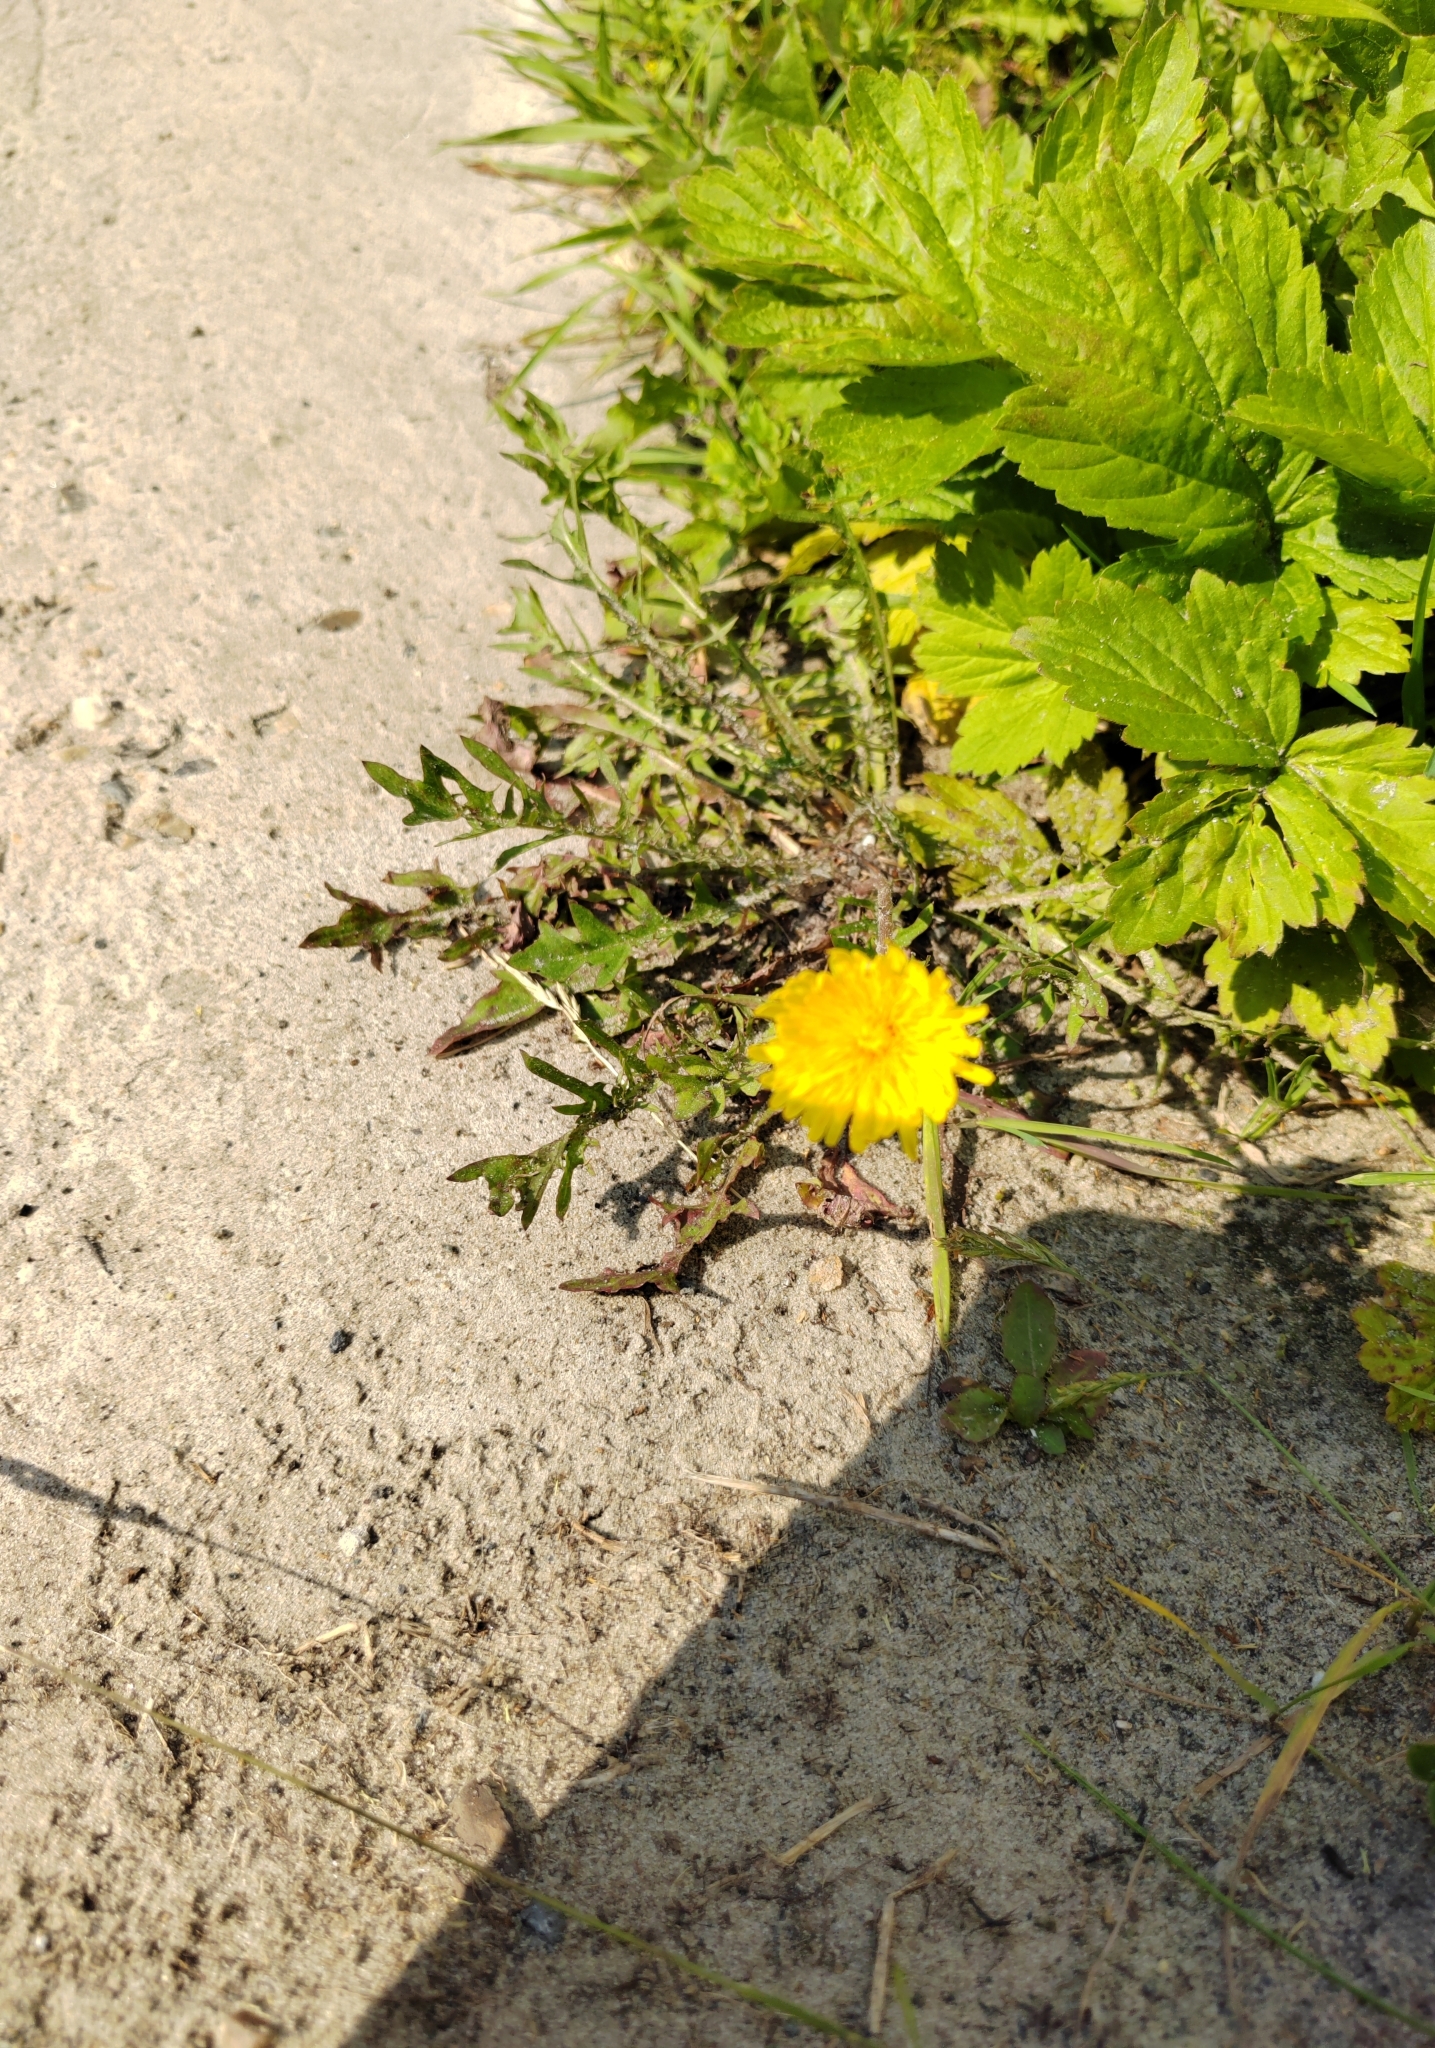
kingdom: Plantae
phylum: Tracheophyta
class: Magnoliopsida
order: Asterales
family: Asteraceae
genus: Taraxacum
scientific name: Taraxacum scariosum
